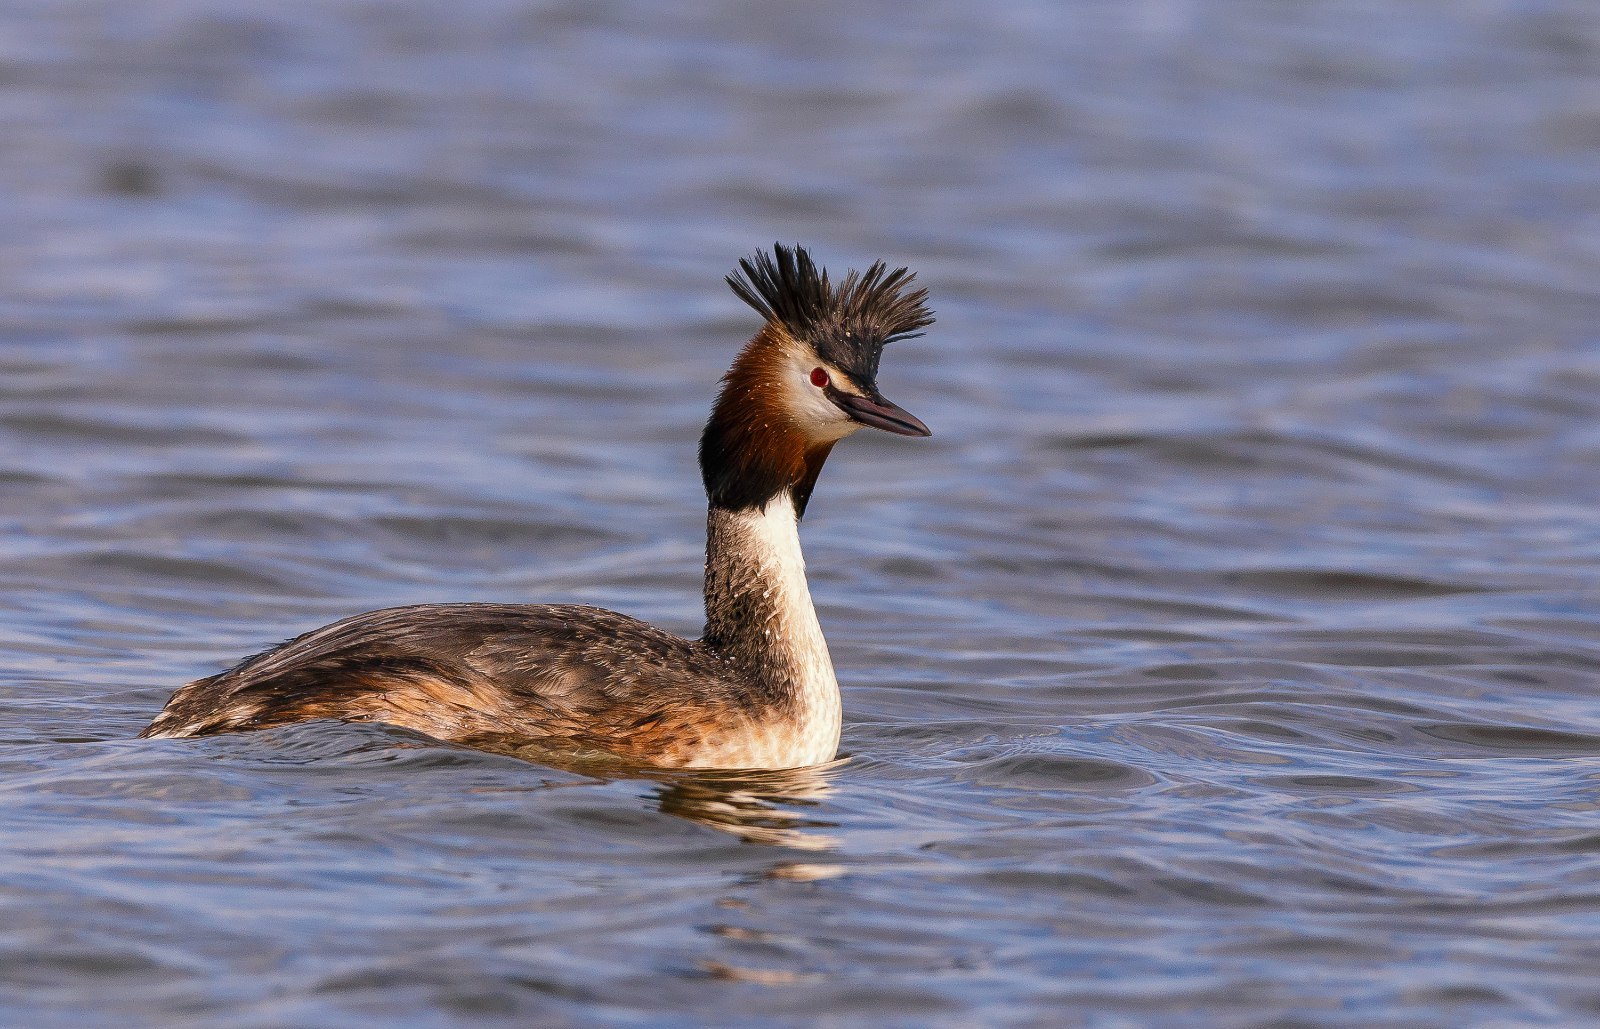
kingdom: Animalia
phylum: Chordata
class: Aves
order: Podicipediformes
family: Podicipedidae
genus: Podiceps
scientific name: Podiceps cristatus
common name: Great crested grebe
